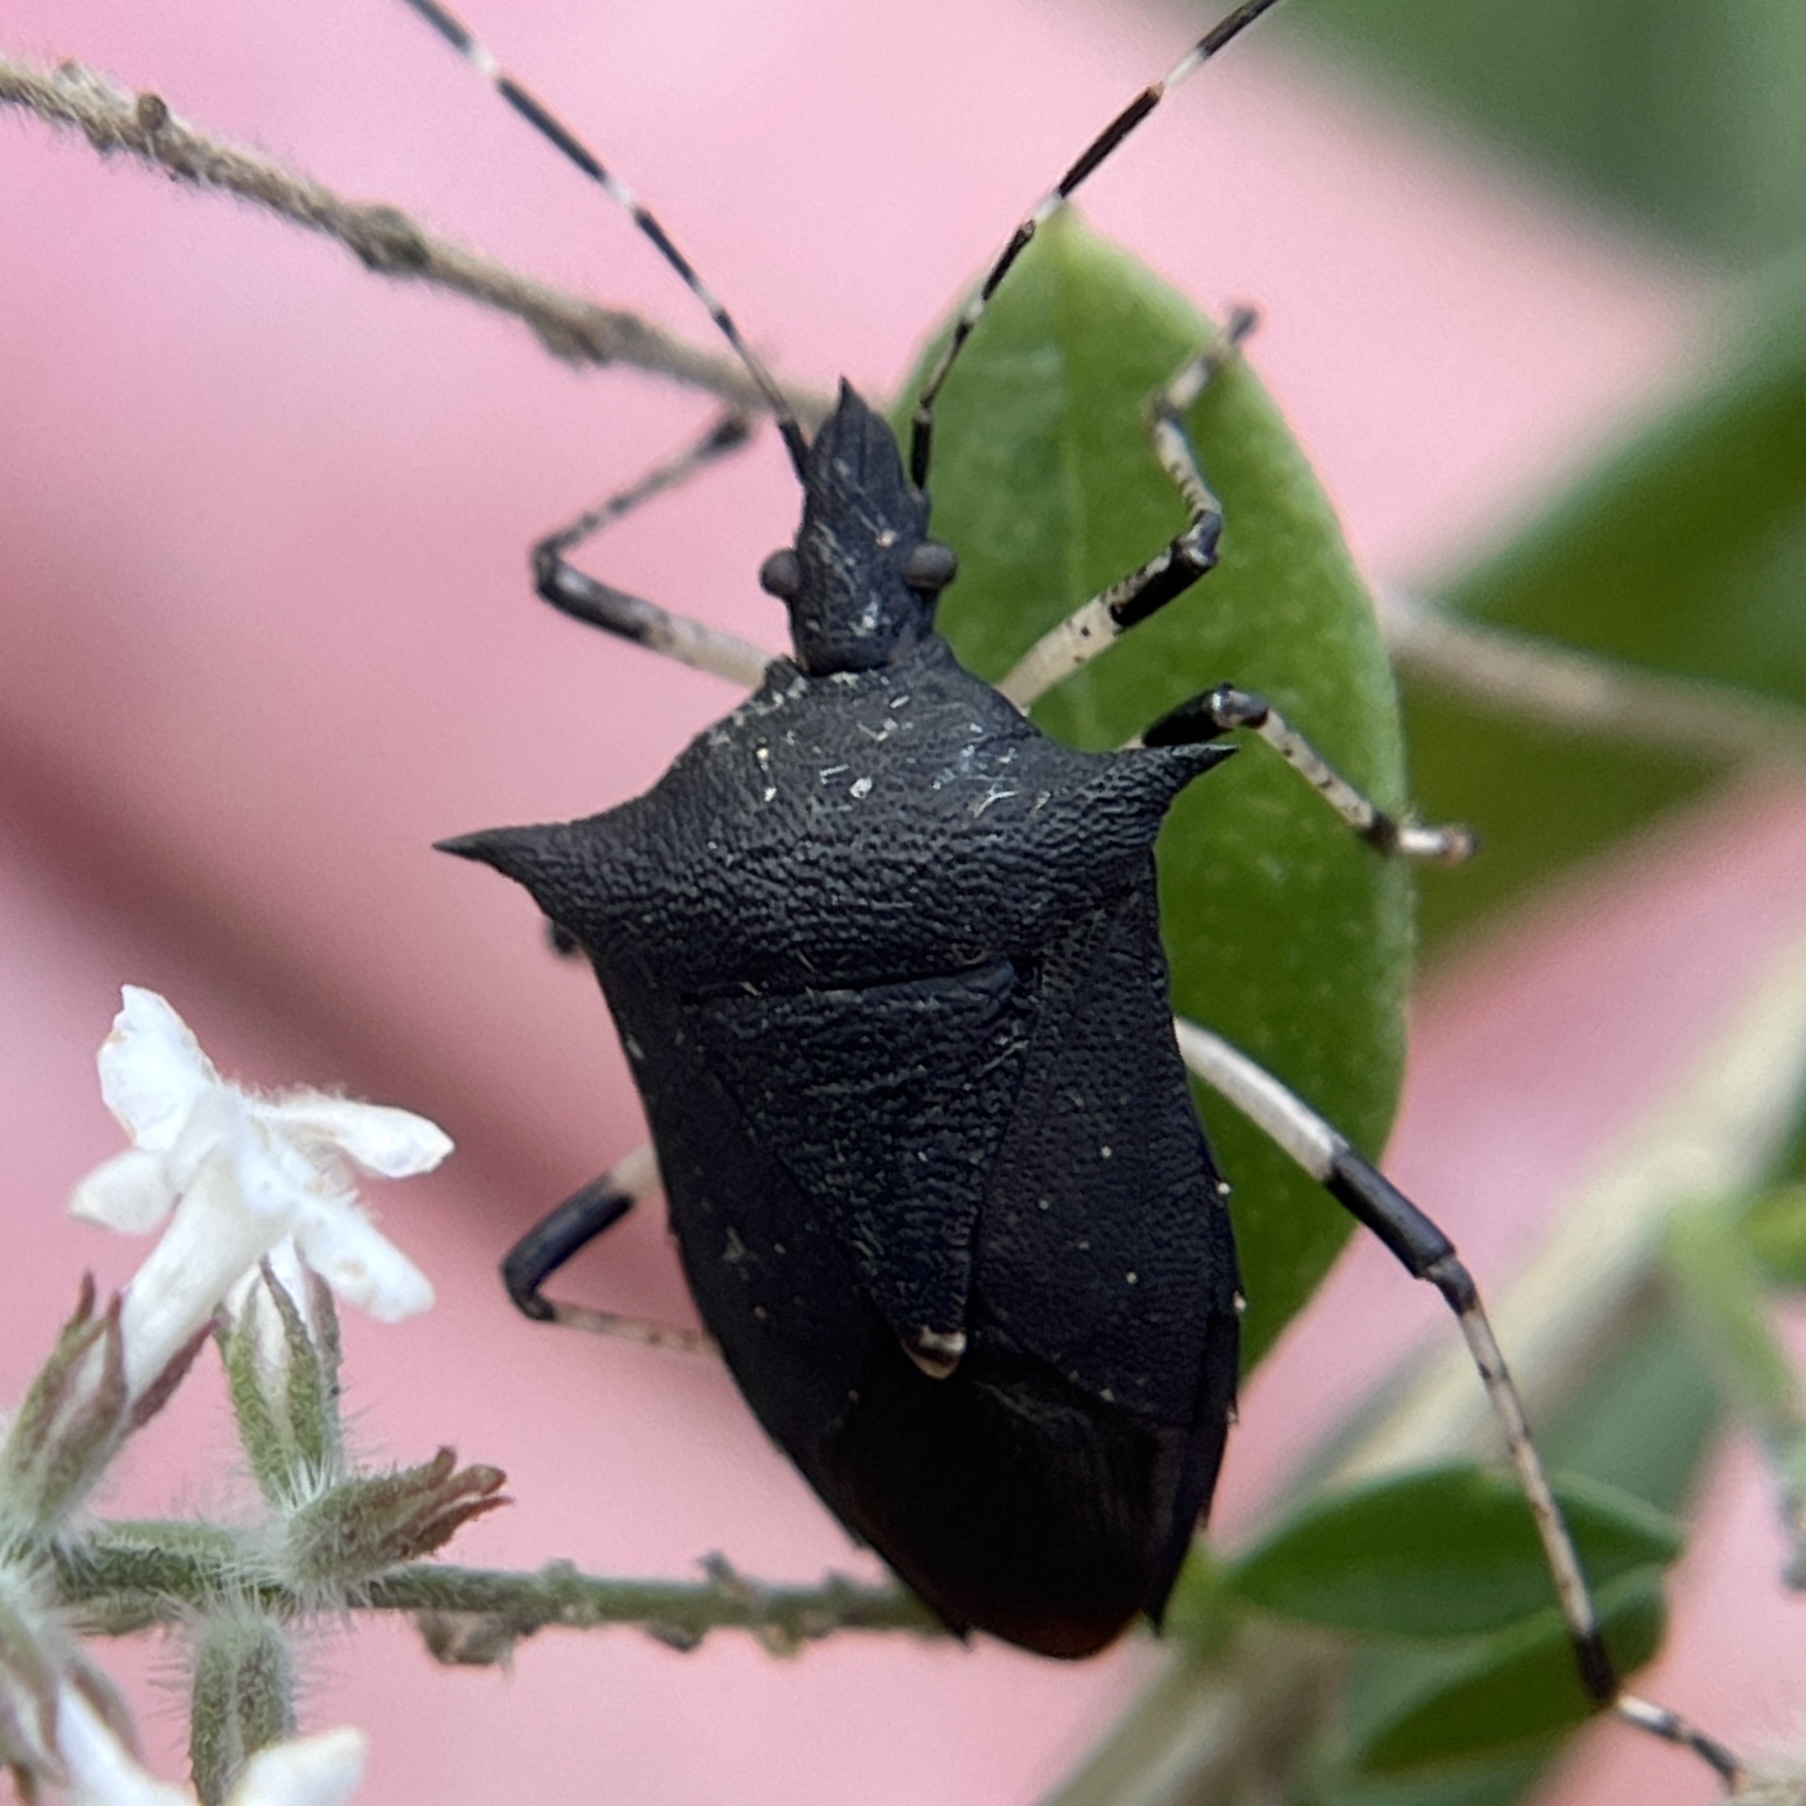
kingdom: Animalia
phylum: Arthropoda
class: Insecta
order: Hemiptera
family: Pentatomidae
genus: Proxys
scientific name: Proxys punctulatus
